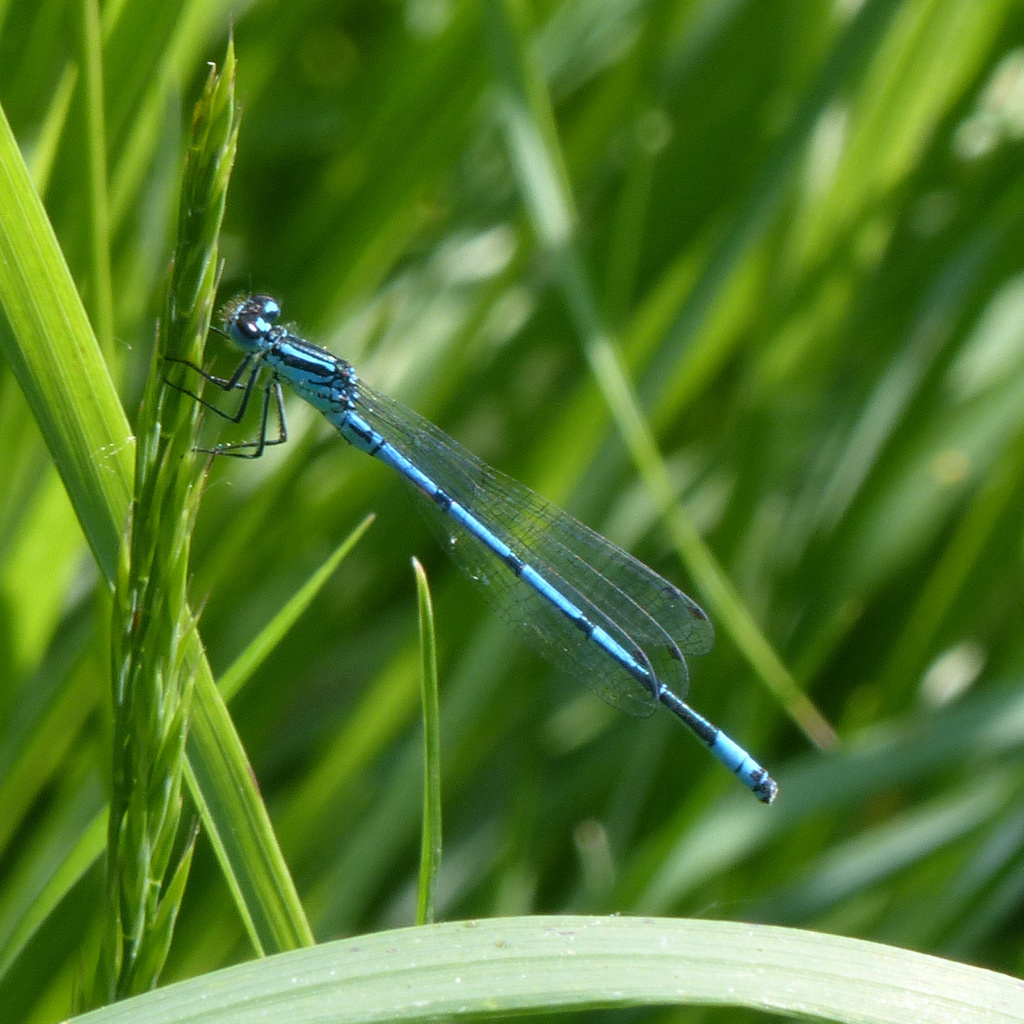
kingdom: Animalia
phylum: Arthropoda
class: Insecta
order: Odonata
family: Coenagrionidae
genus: Coenagrion
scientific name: Coenagrion puella
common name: Azure damselfly
